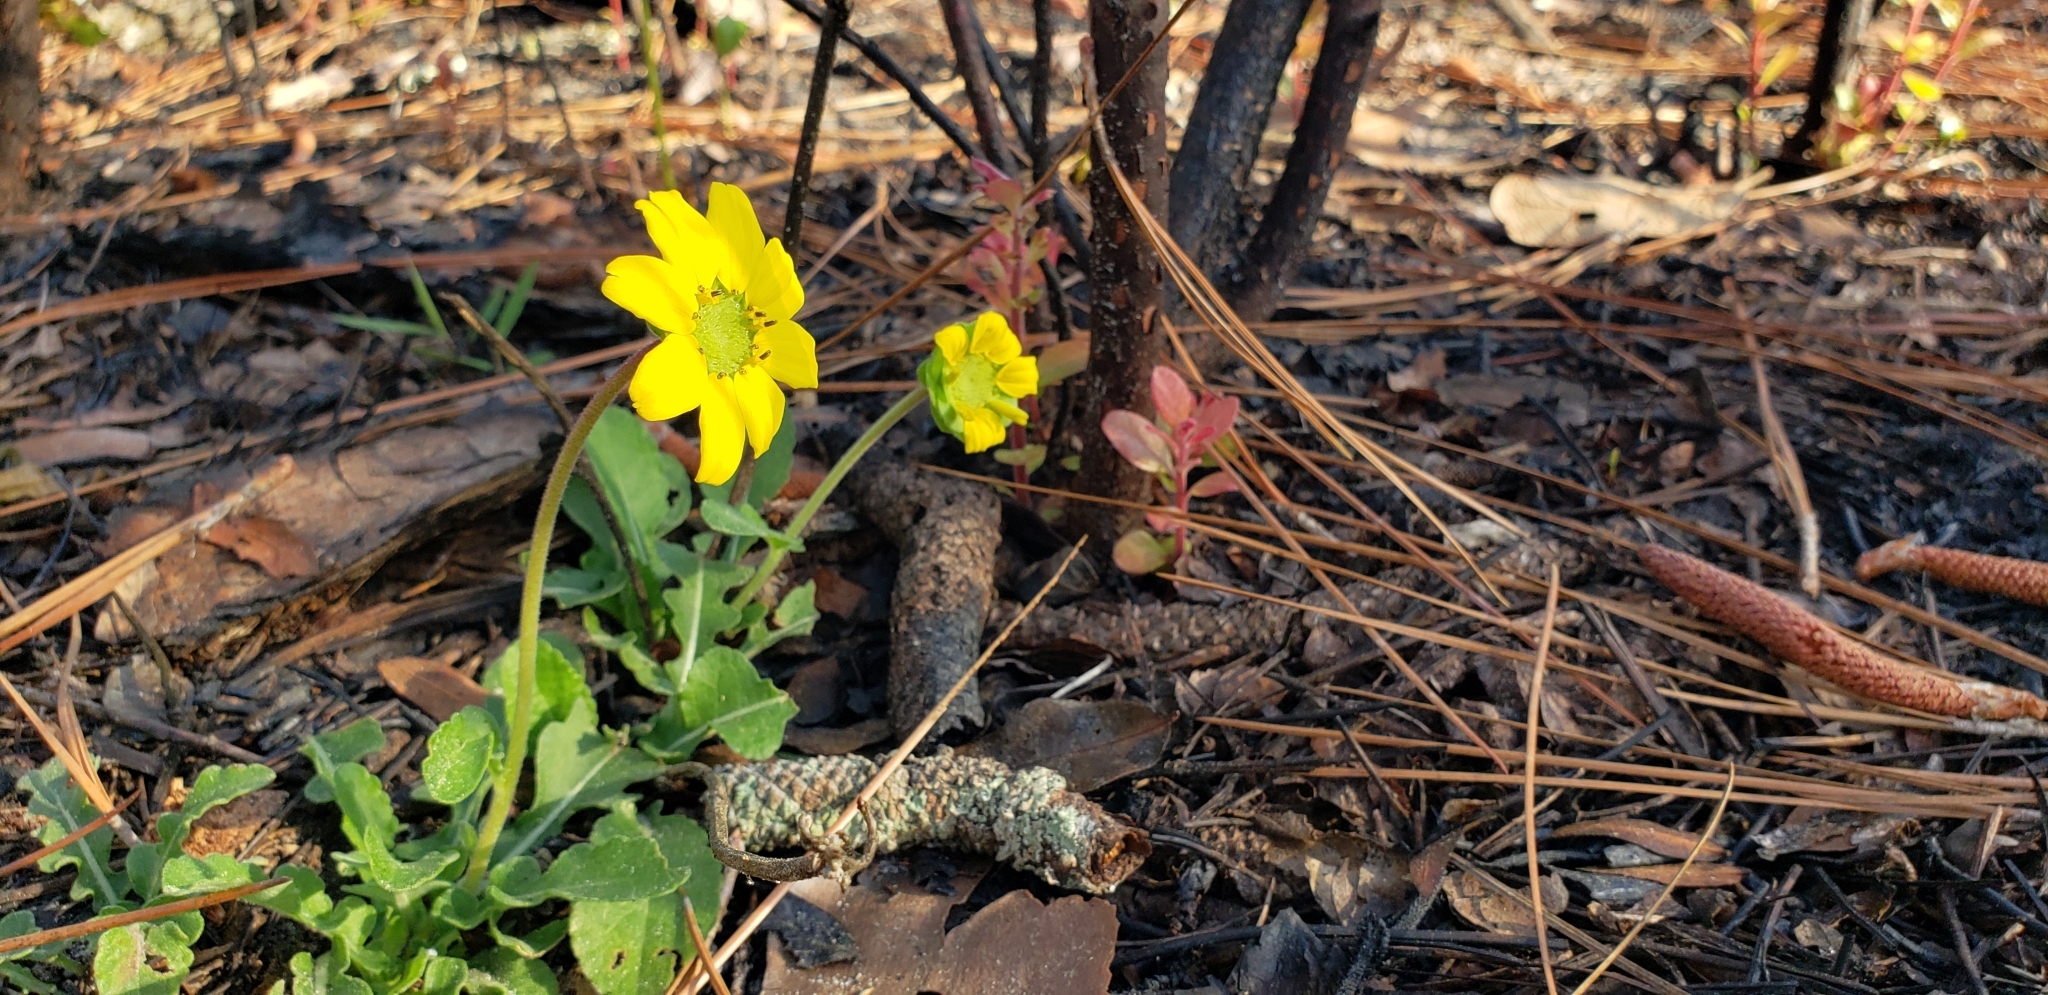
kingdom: Plantae
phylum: Tracheophyta
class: Magnoliopsida
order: Asterales
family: Asteraceae
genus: Berlandiera
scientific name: Berlandiera subacaulis
